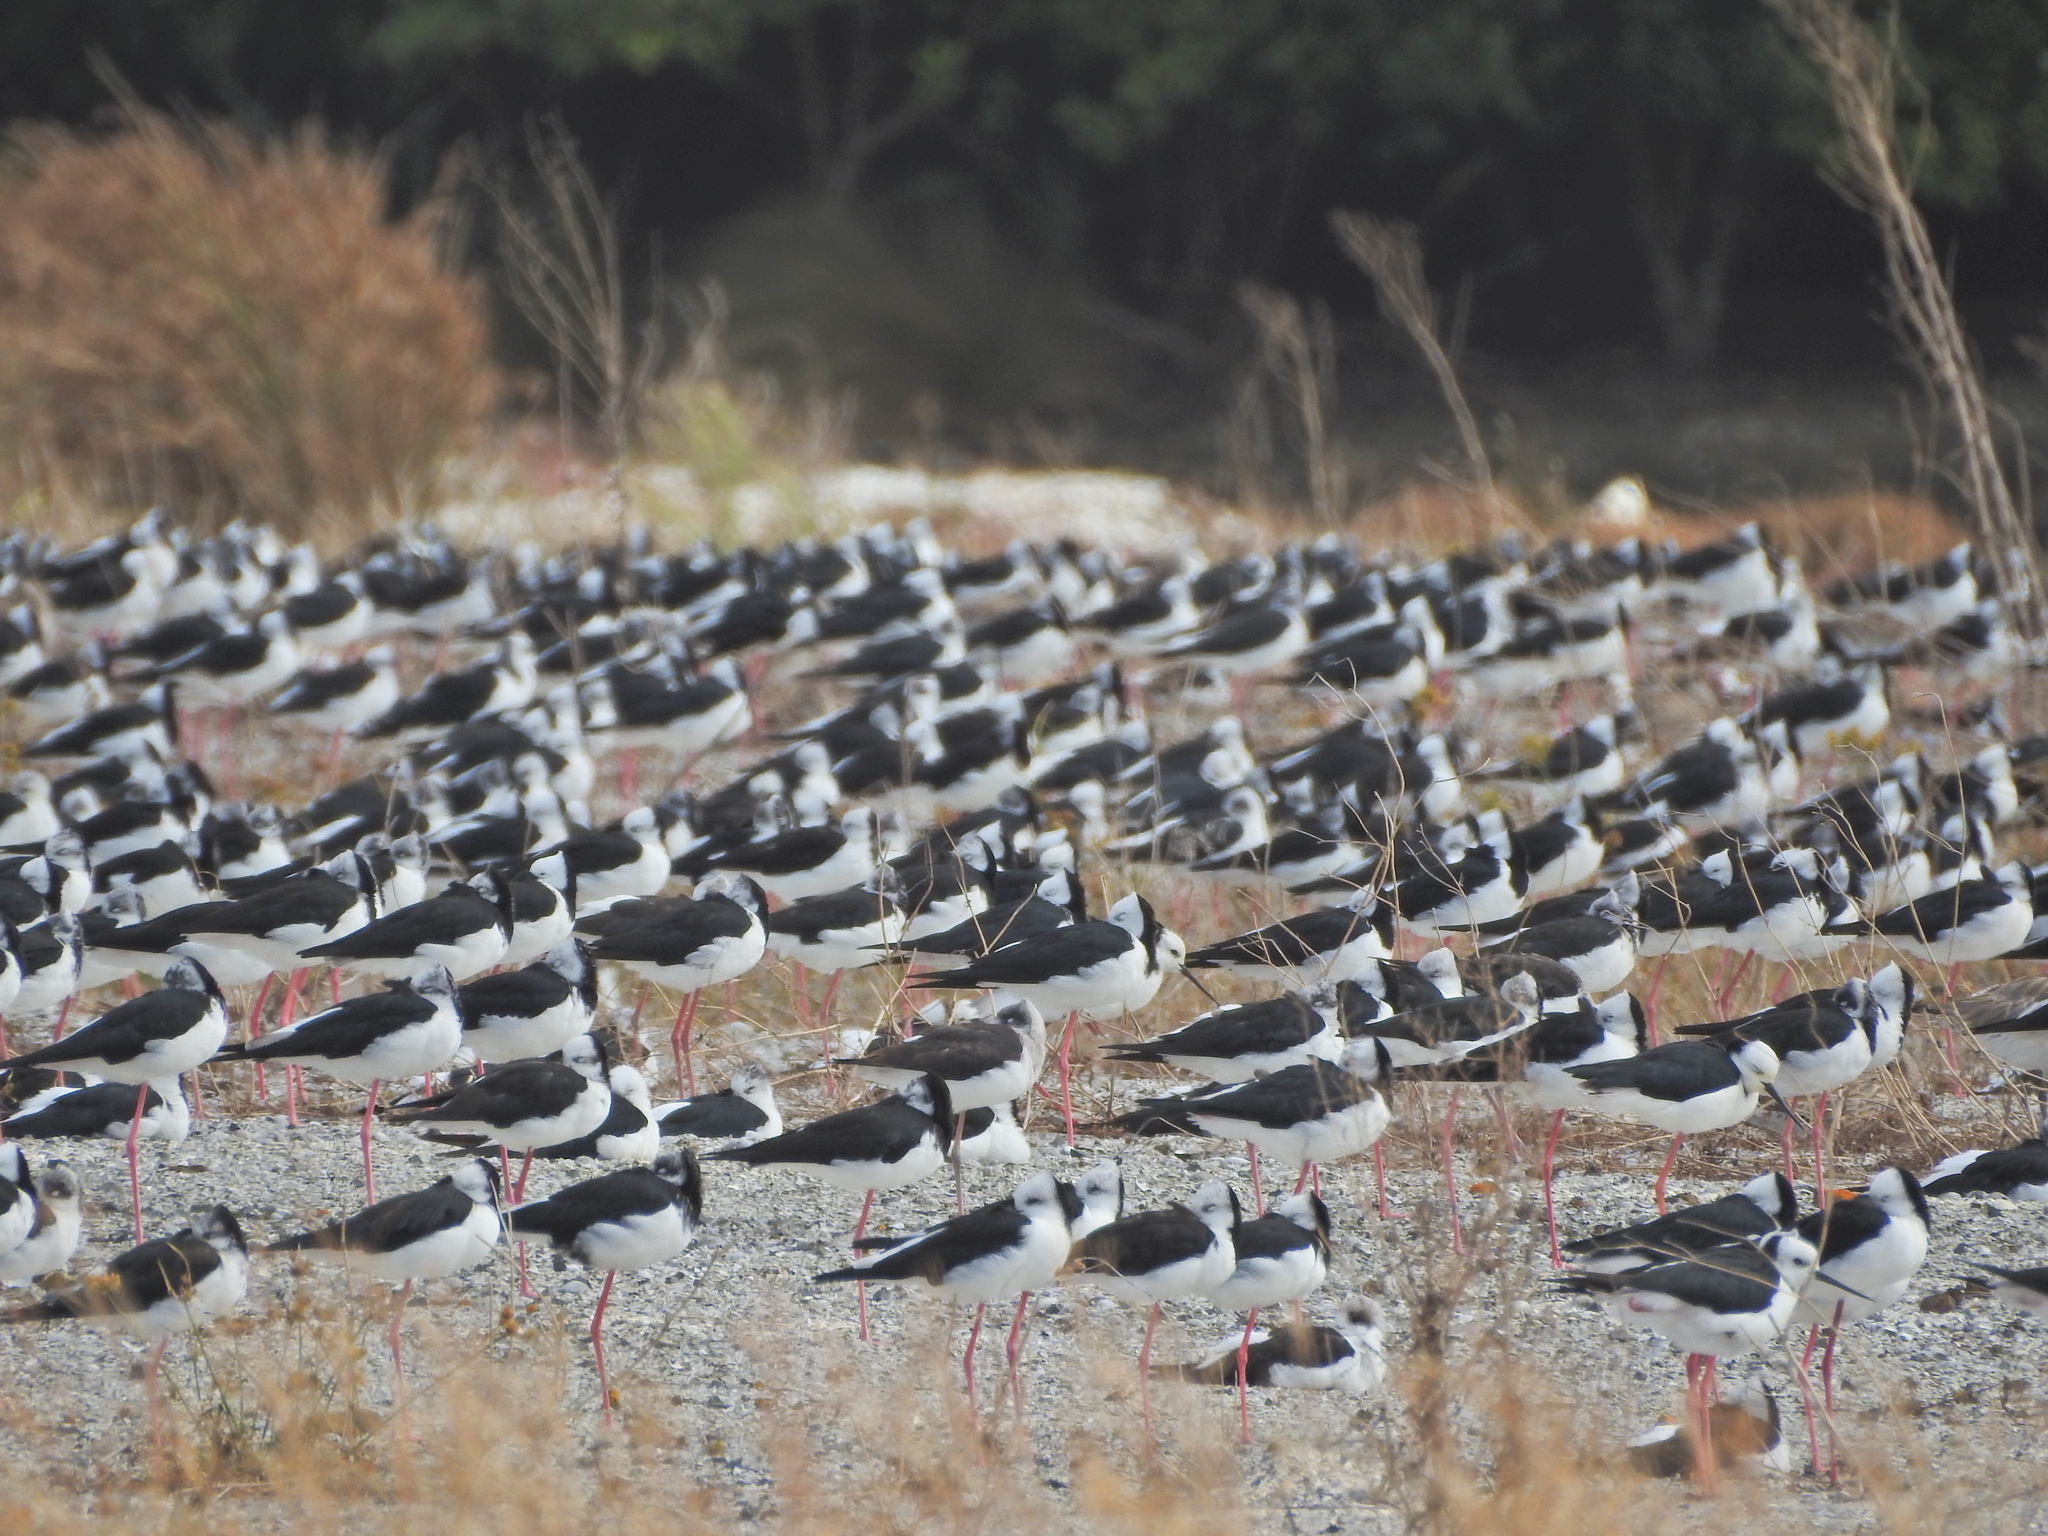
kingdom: Animalia
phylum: Chordata
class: Aves
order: Charadriiformes
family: Recurvirostridae
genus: Himantopus
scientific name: Himantopus leucocephalus
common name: White-headed stilt
